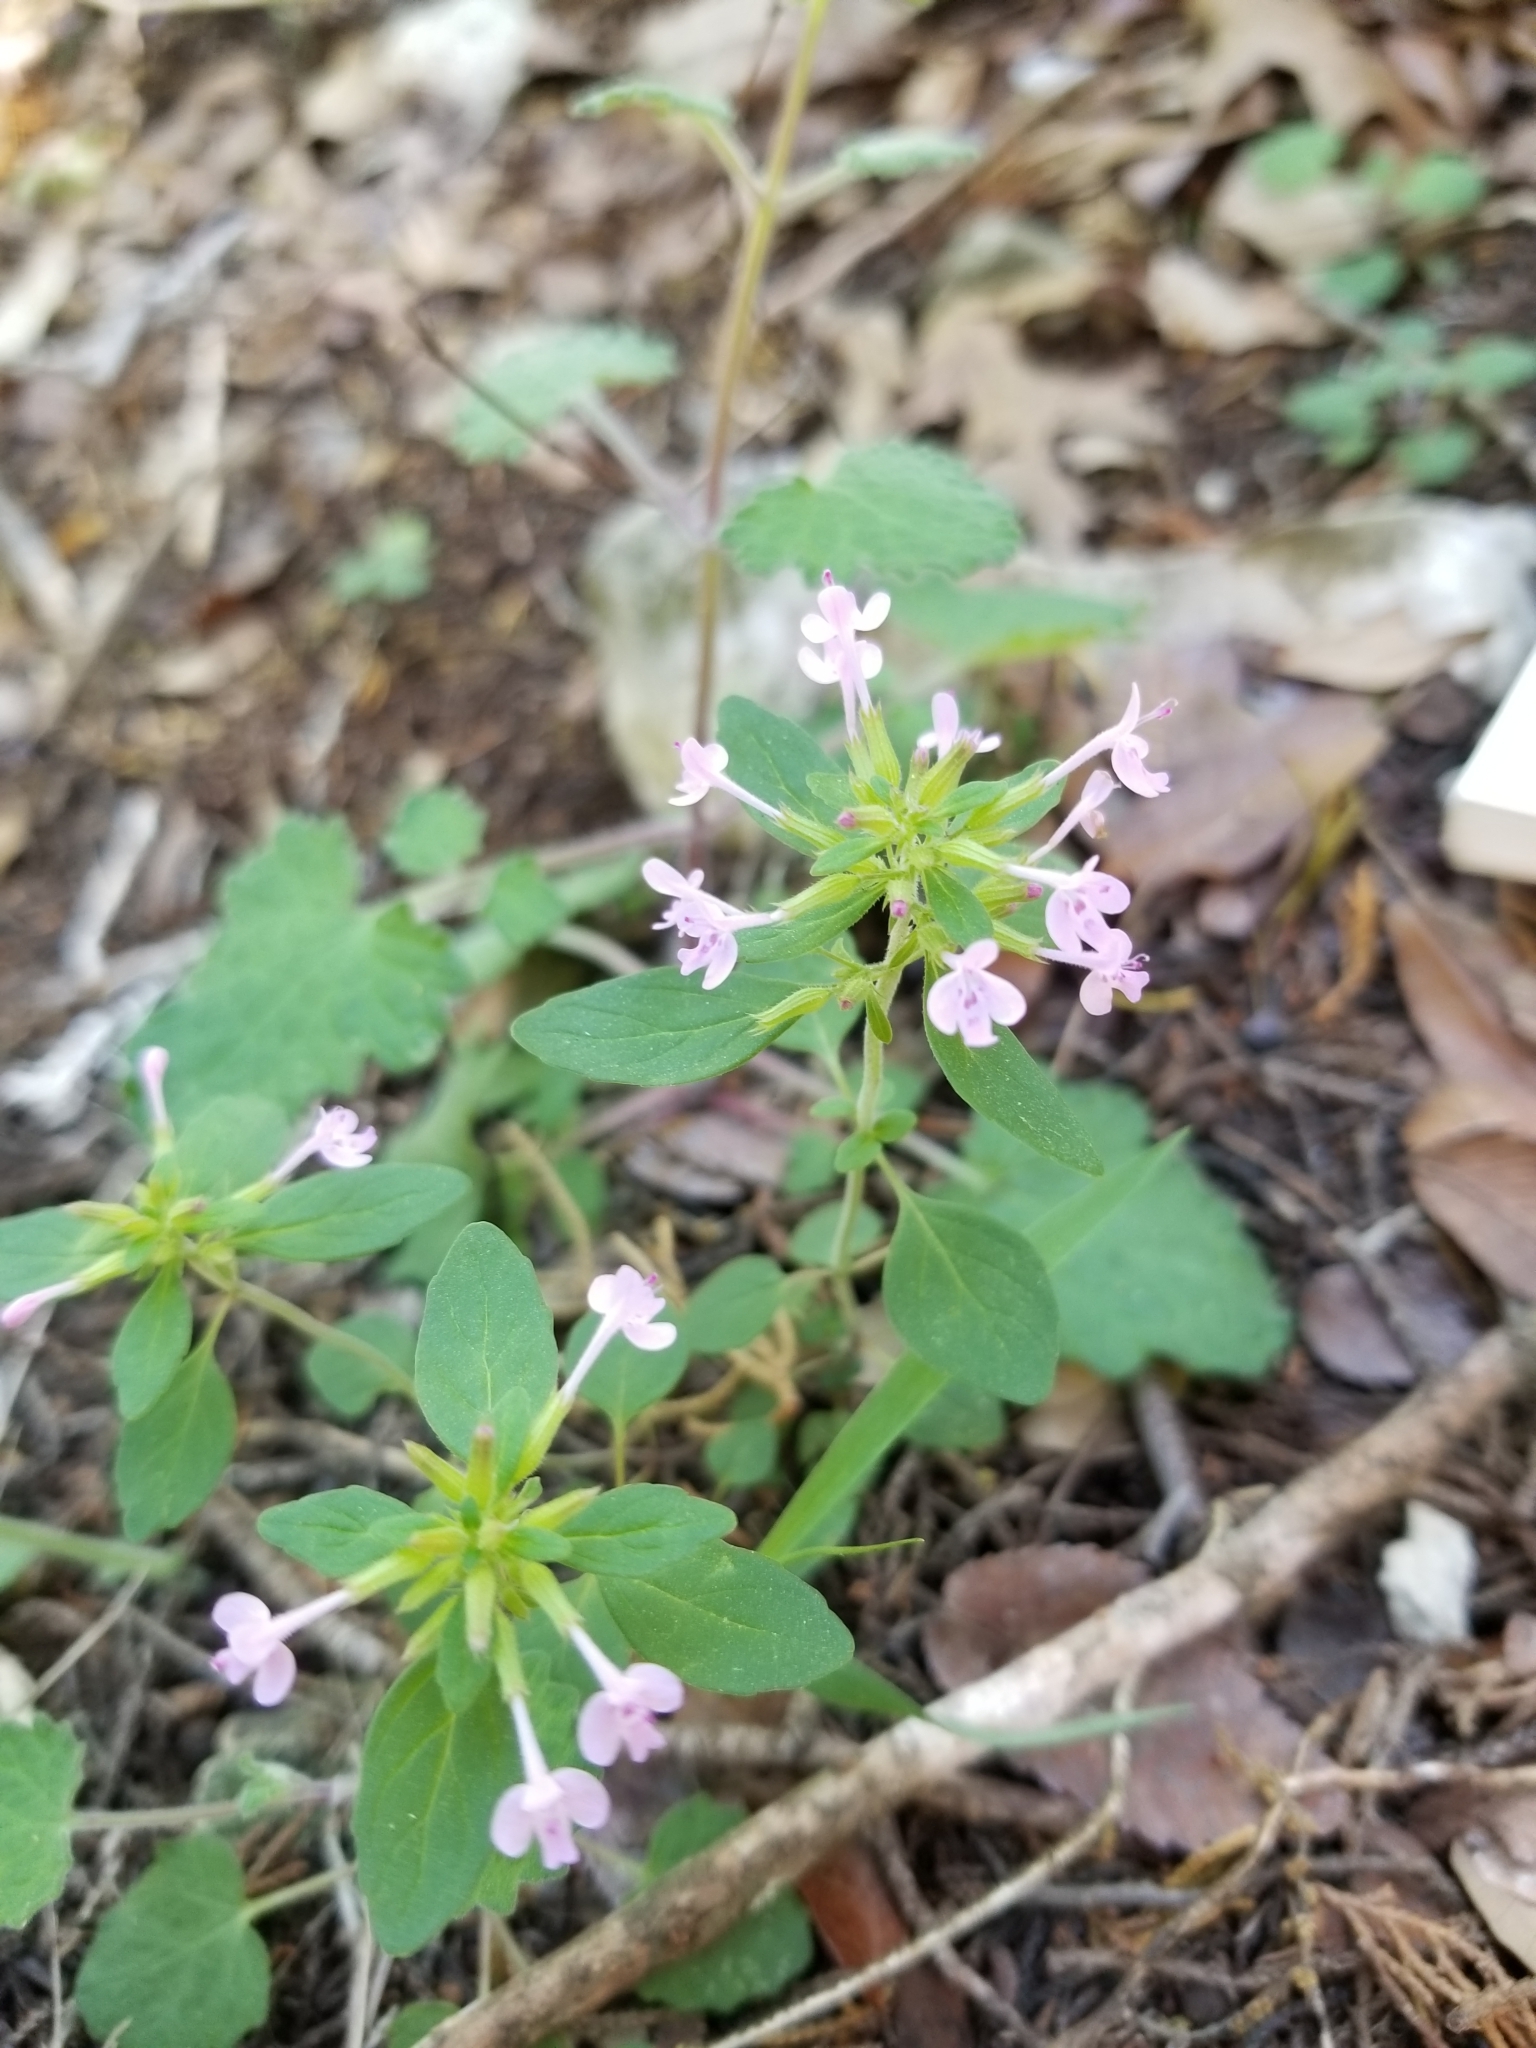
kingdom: Plantae
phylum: Tracheophyta
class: Magnoliopsida
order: Lamiales
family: Lamiaceae
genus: Hedeoma
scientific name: Hedeoma acinoides
